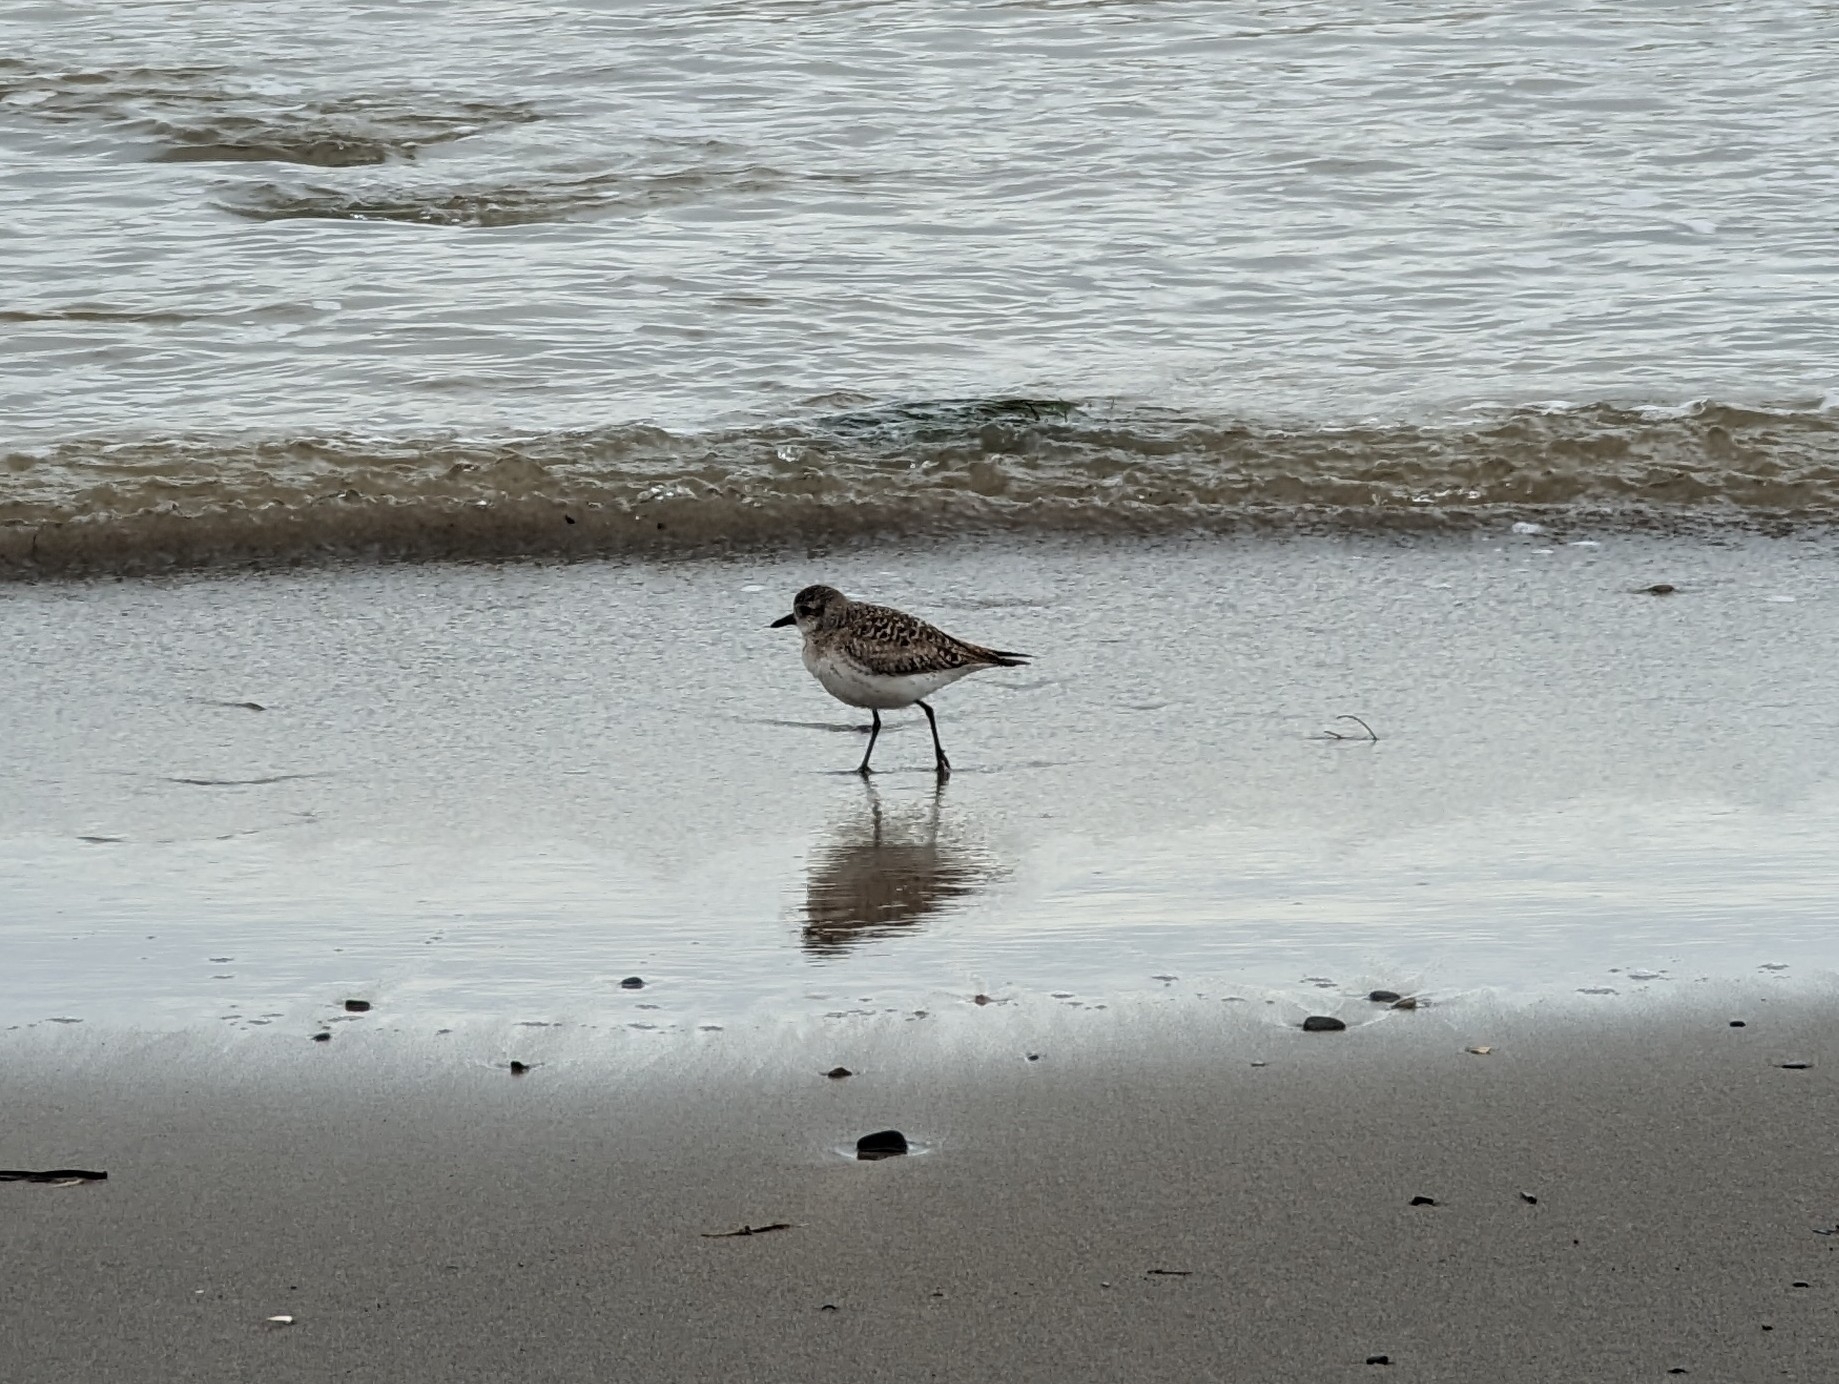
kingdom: Animalia
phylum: Chordata
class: Aves
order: Charadriiformes
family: Charadriidae
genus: Pluvialis
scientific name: Pluvialis squatarola
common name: Grey plover
